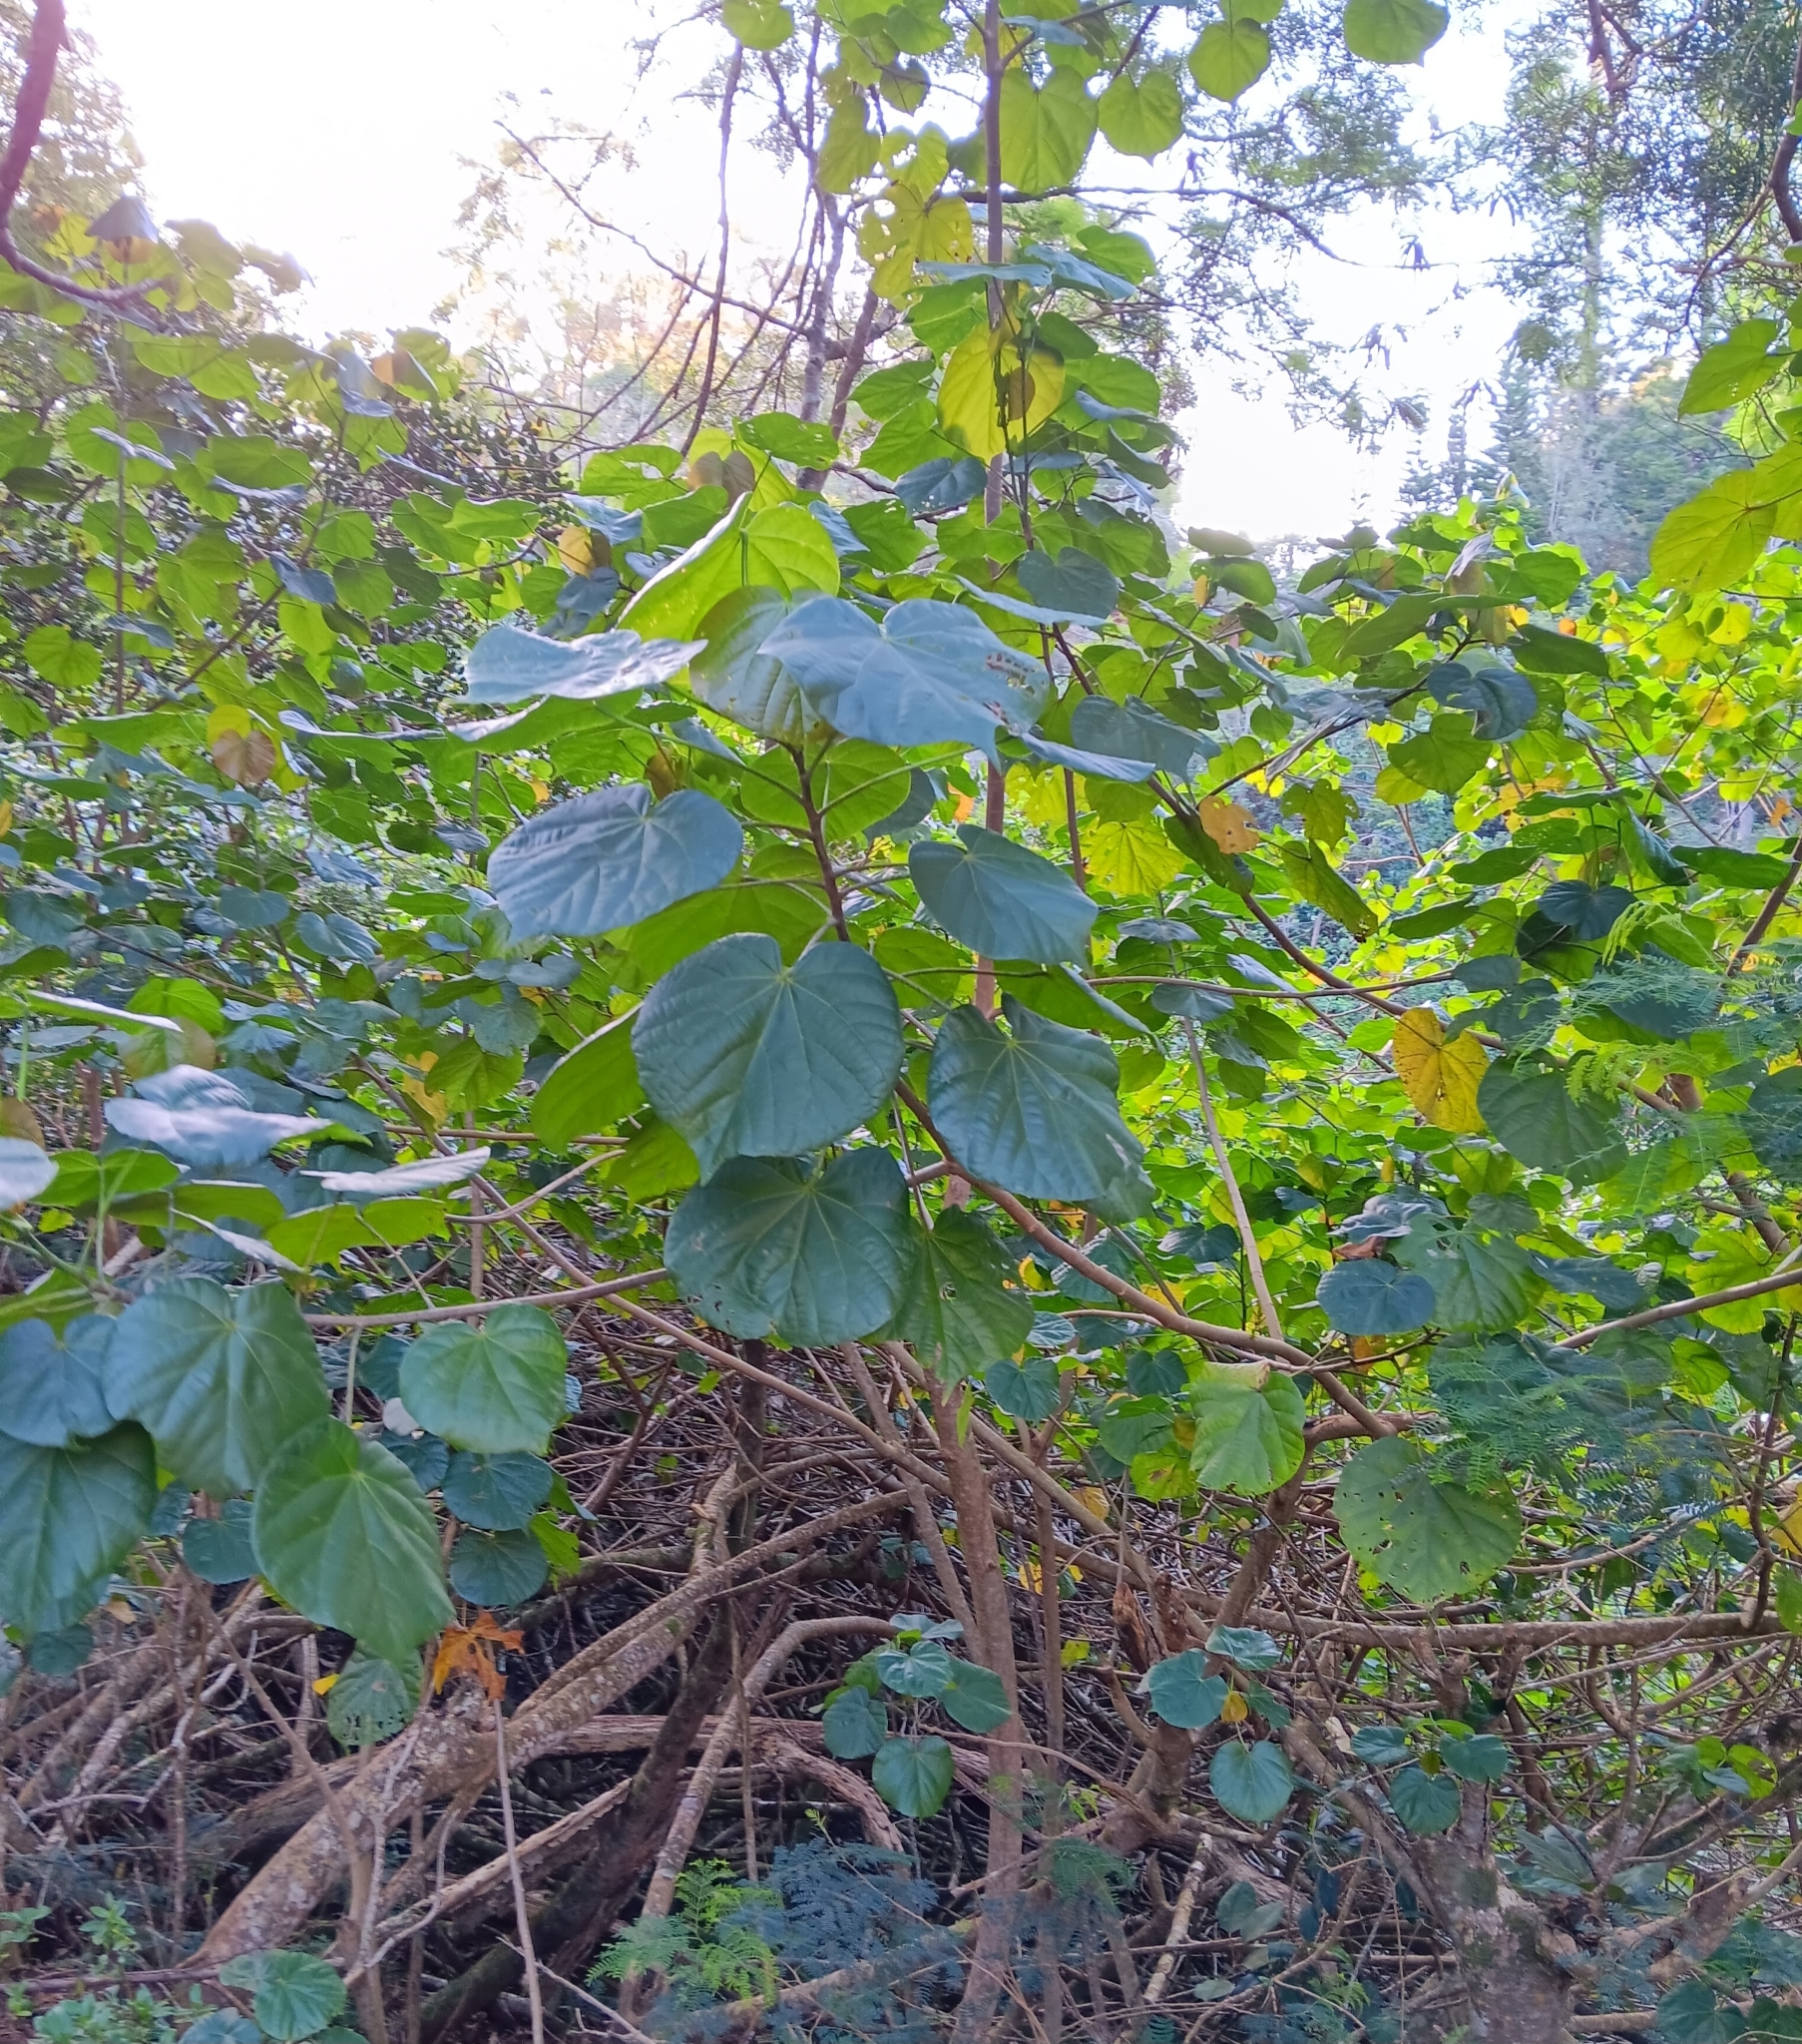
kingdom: Plantae
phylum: Tracheophyta
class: Magnoliopsida
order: Malvales
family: Malvaceae
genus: Talipariti
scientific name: Talipariti tiliaceum
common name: Sea hibiscus
